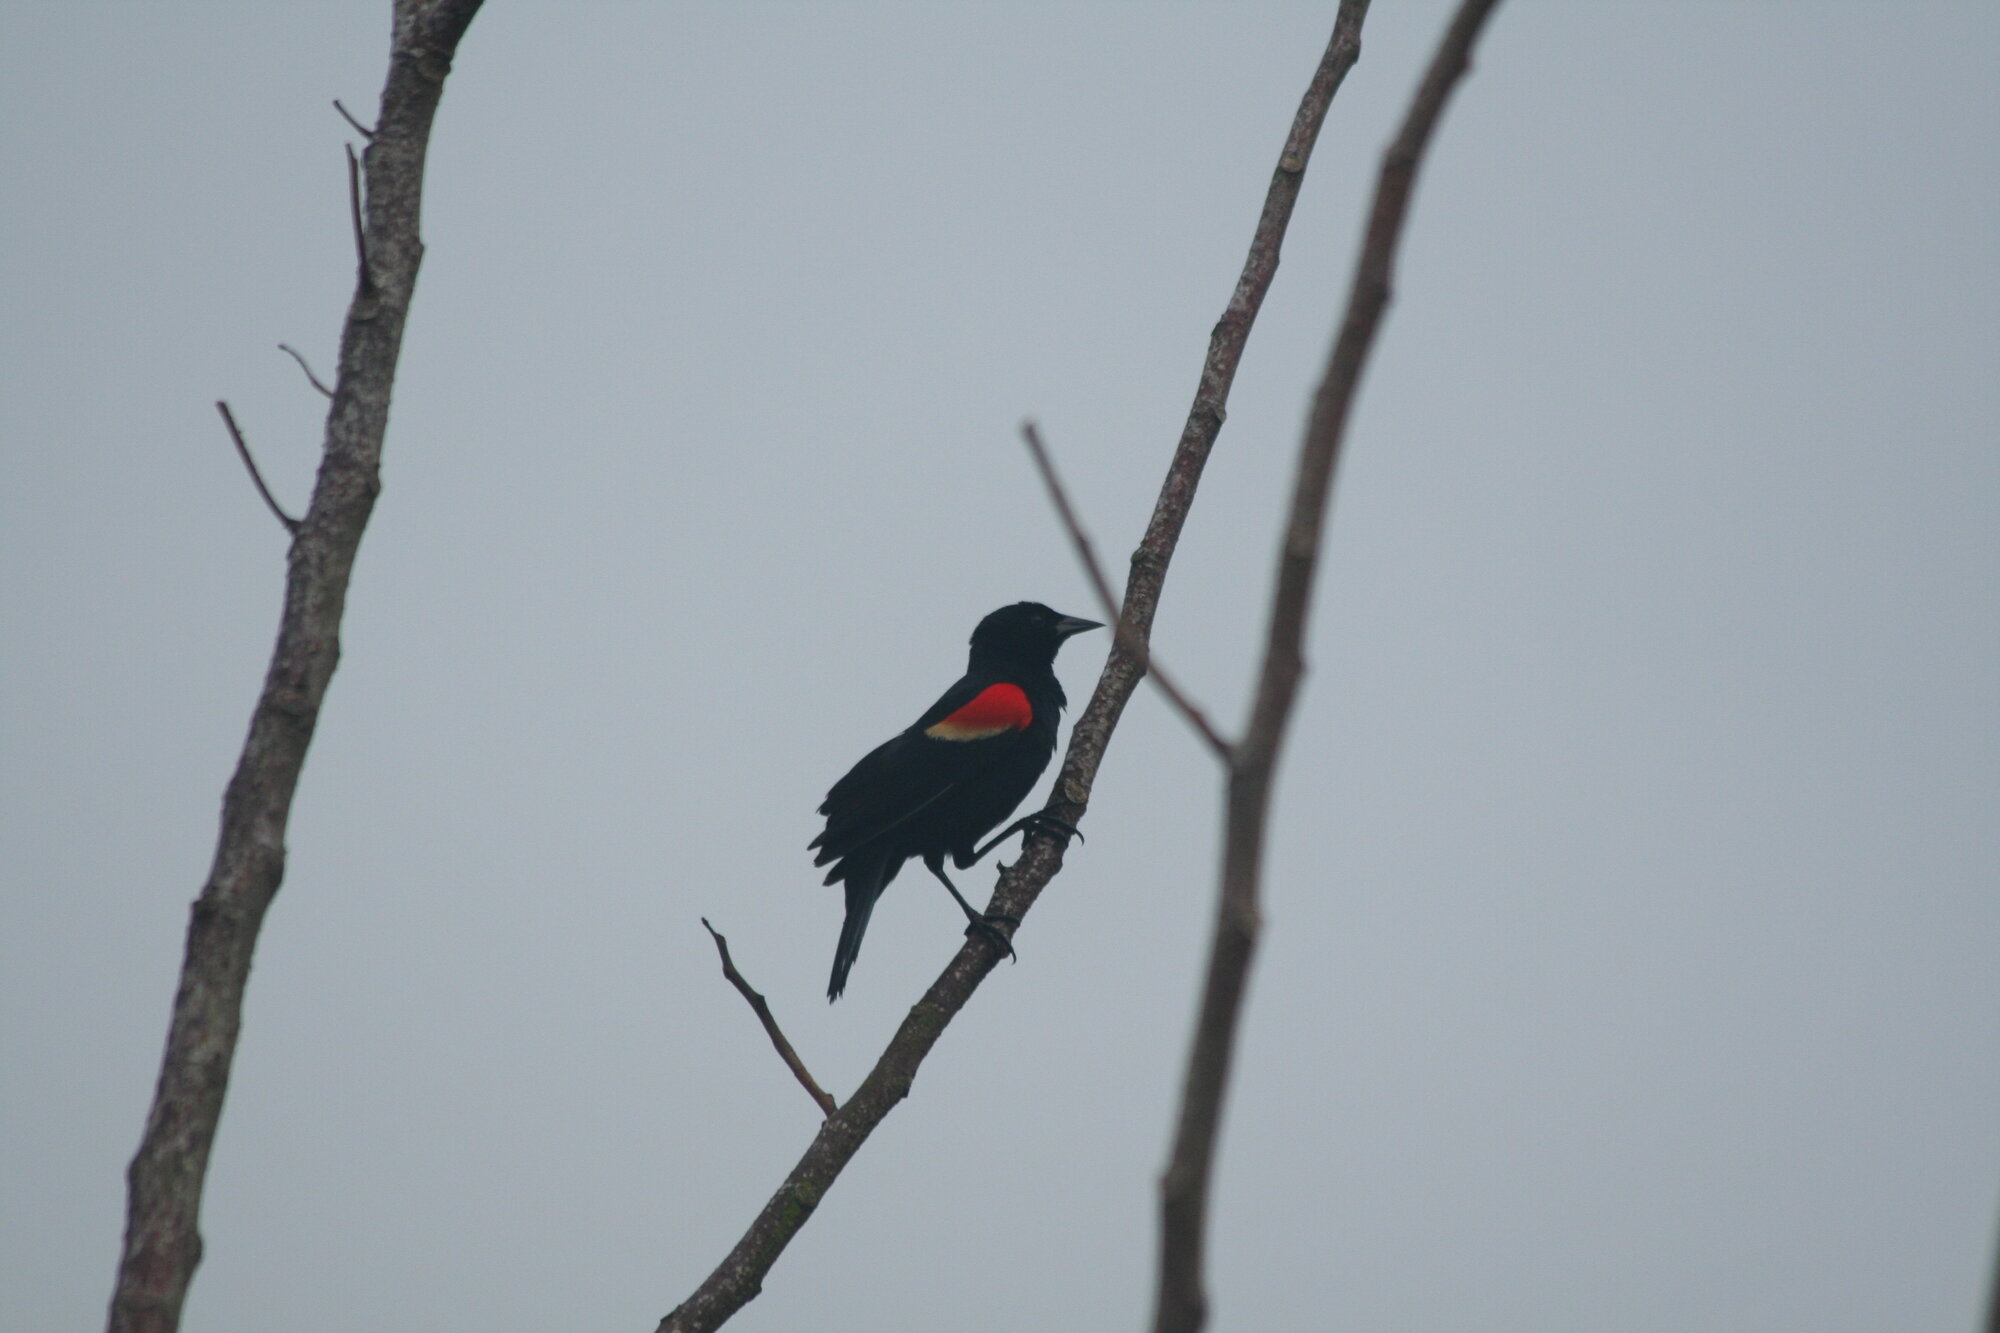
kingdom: Animalia
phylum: Chordata
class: Aves
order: Passeriformes
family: Icteridae
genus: Agelaius
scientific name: Agelaius phoeniceus
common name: Red-winged blackbird
